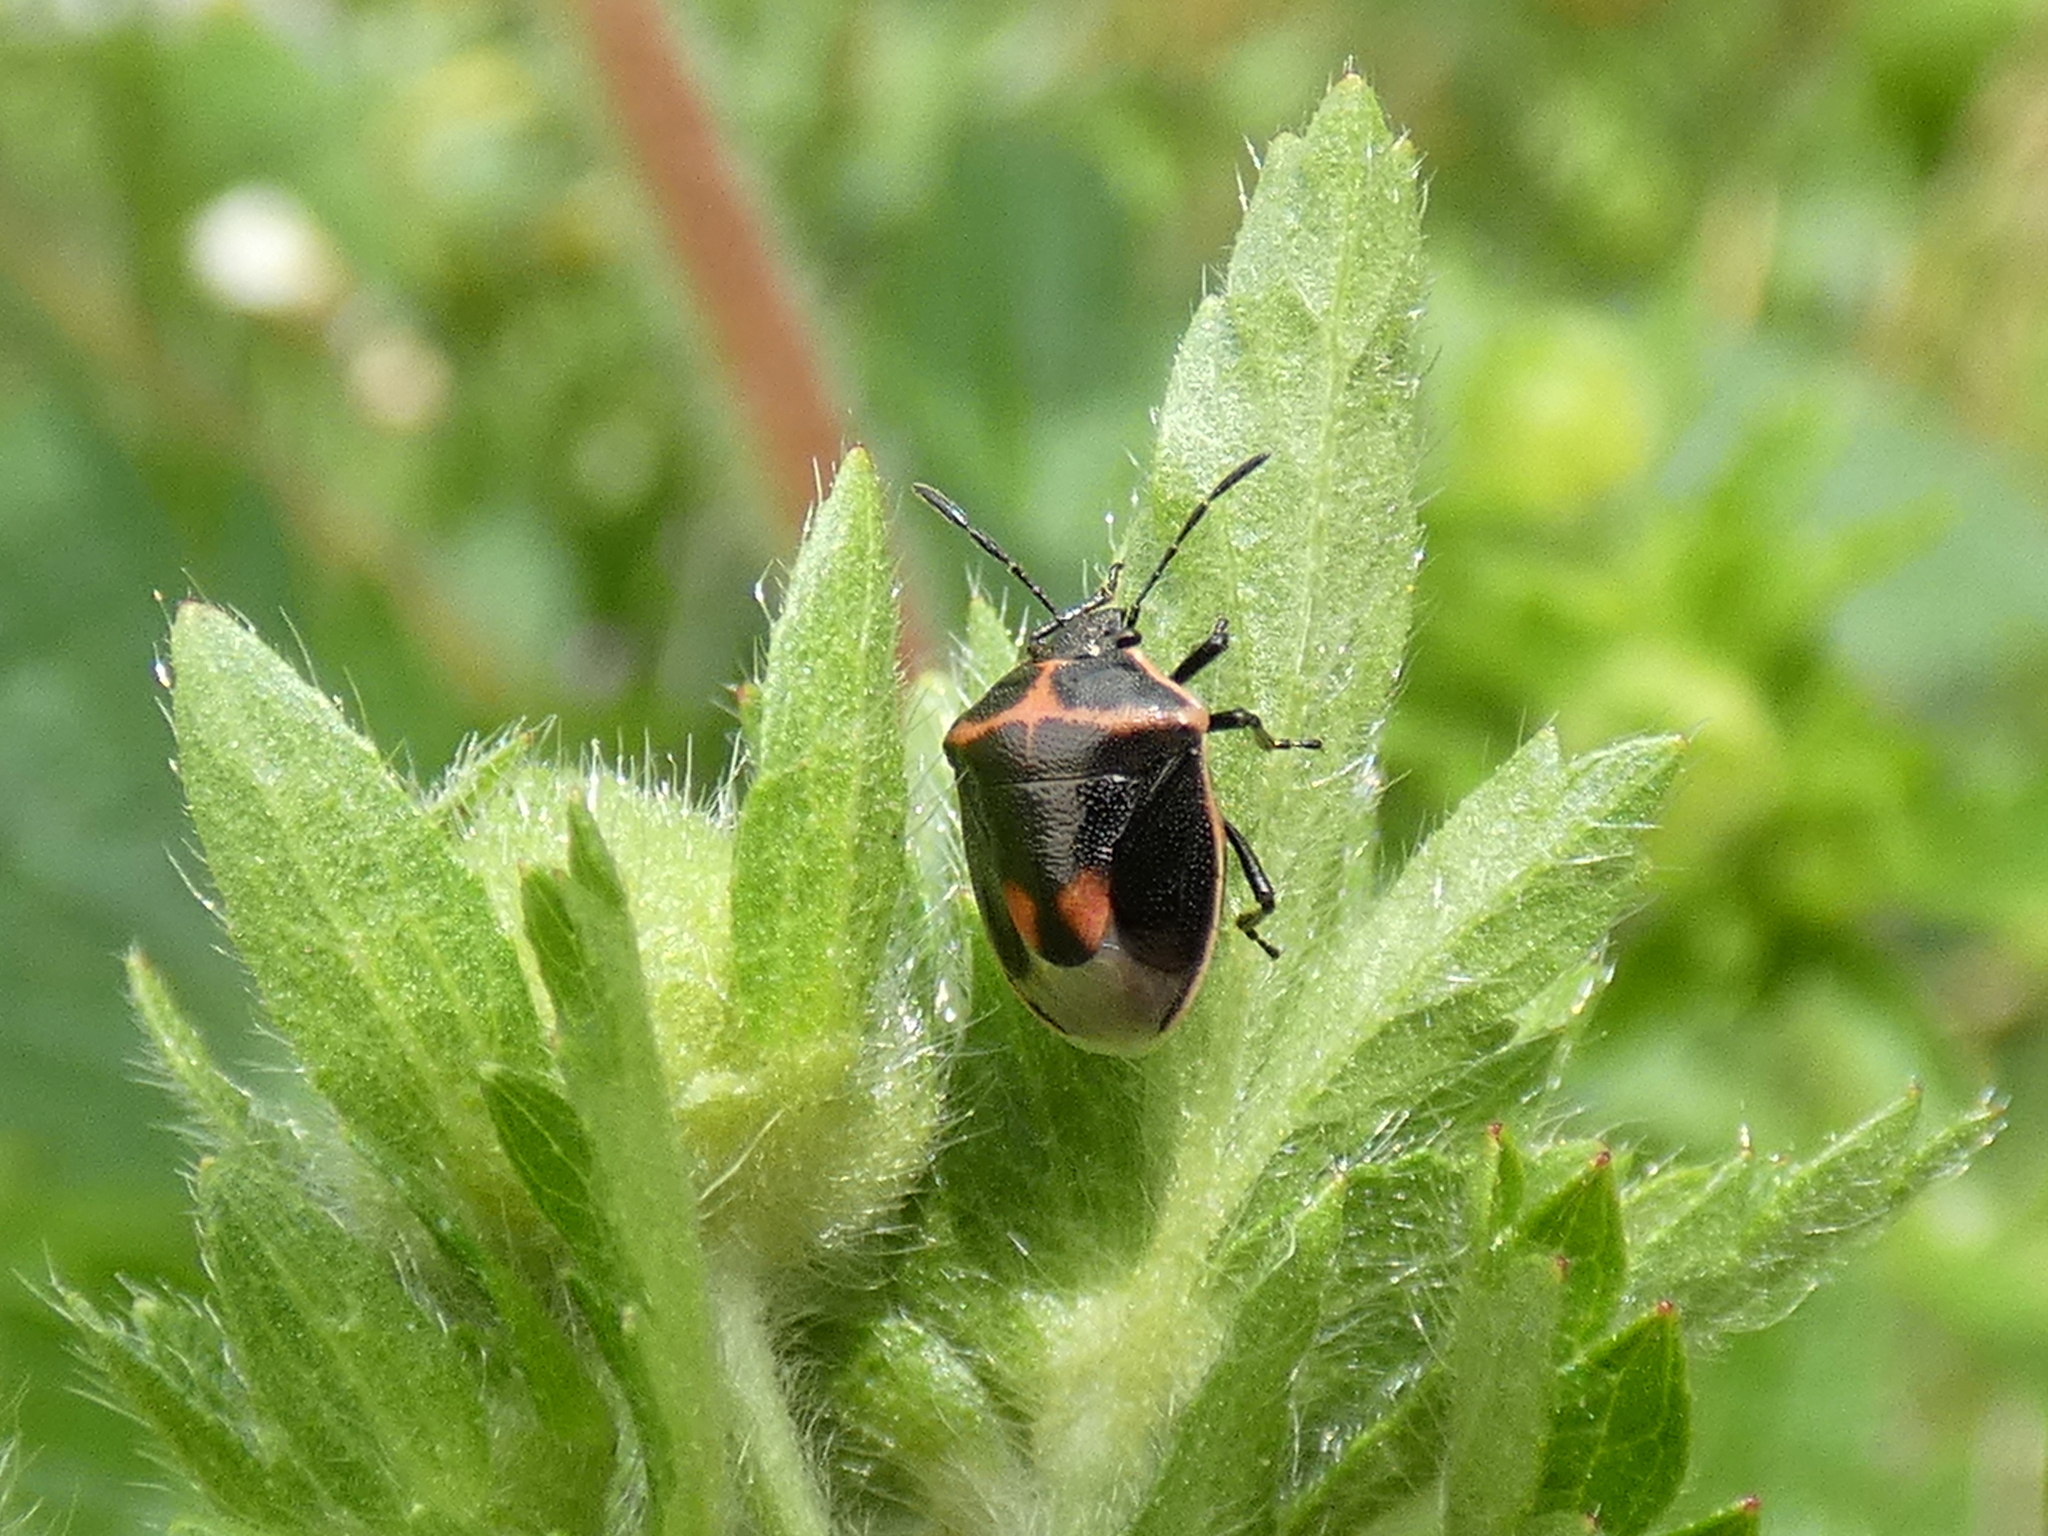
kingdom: Animalia
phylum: Arthropoda
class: Insecta
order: Hemiptera
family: Pentatomidae
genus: Cosmopepla
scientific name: Cosmopepla lintneriana
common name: Twice-stabbed stink bug
